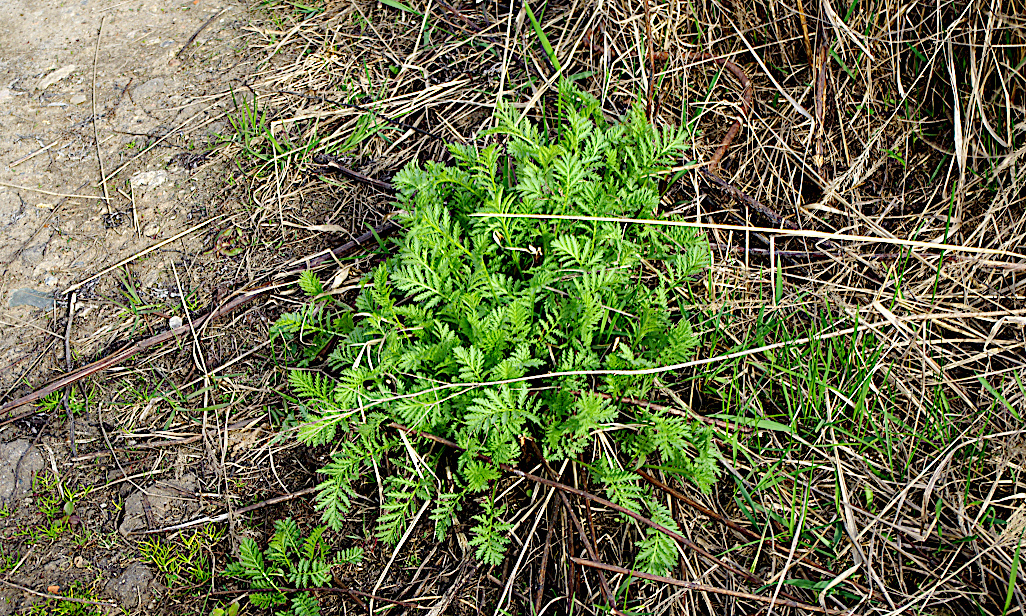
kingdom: Plantae
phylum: Tracheophyta
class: Magnoliopsida
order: Asterales
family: Asteraceae
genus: Tanacetum
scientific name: Tanacetum vulgare
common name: Common tansy
